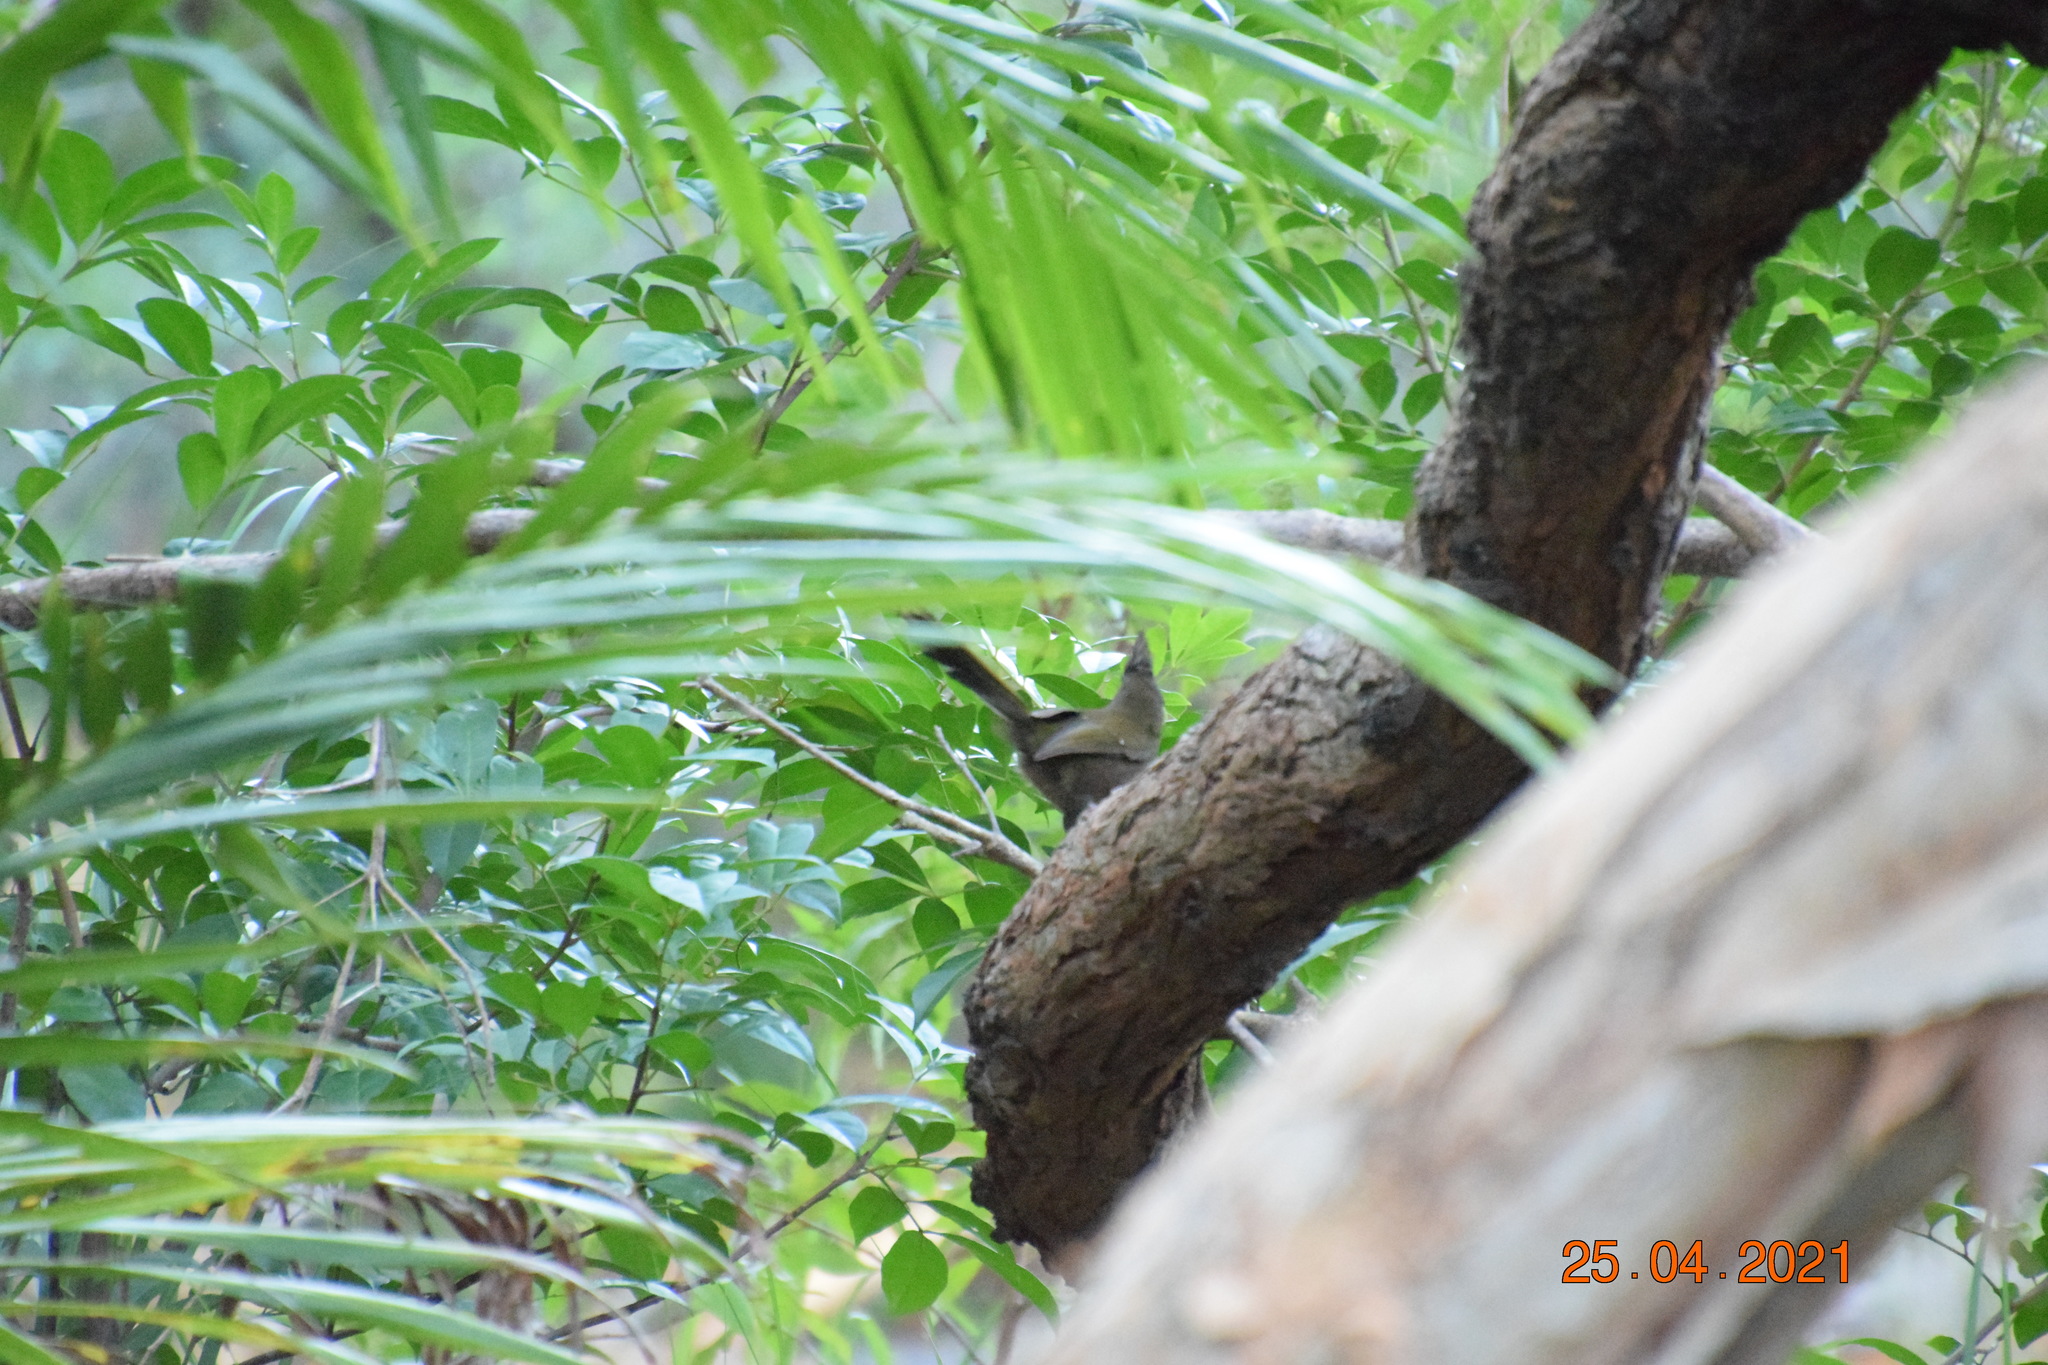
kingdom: Animalia
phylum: Chordata
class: Aves
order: Passeriformes
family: Psophodidae
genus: Psophodes
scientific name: Psophodes olivaceus
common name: Eastern whipbird
